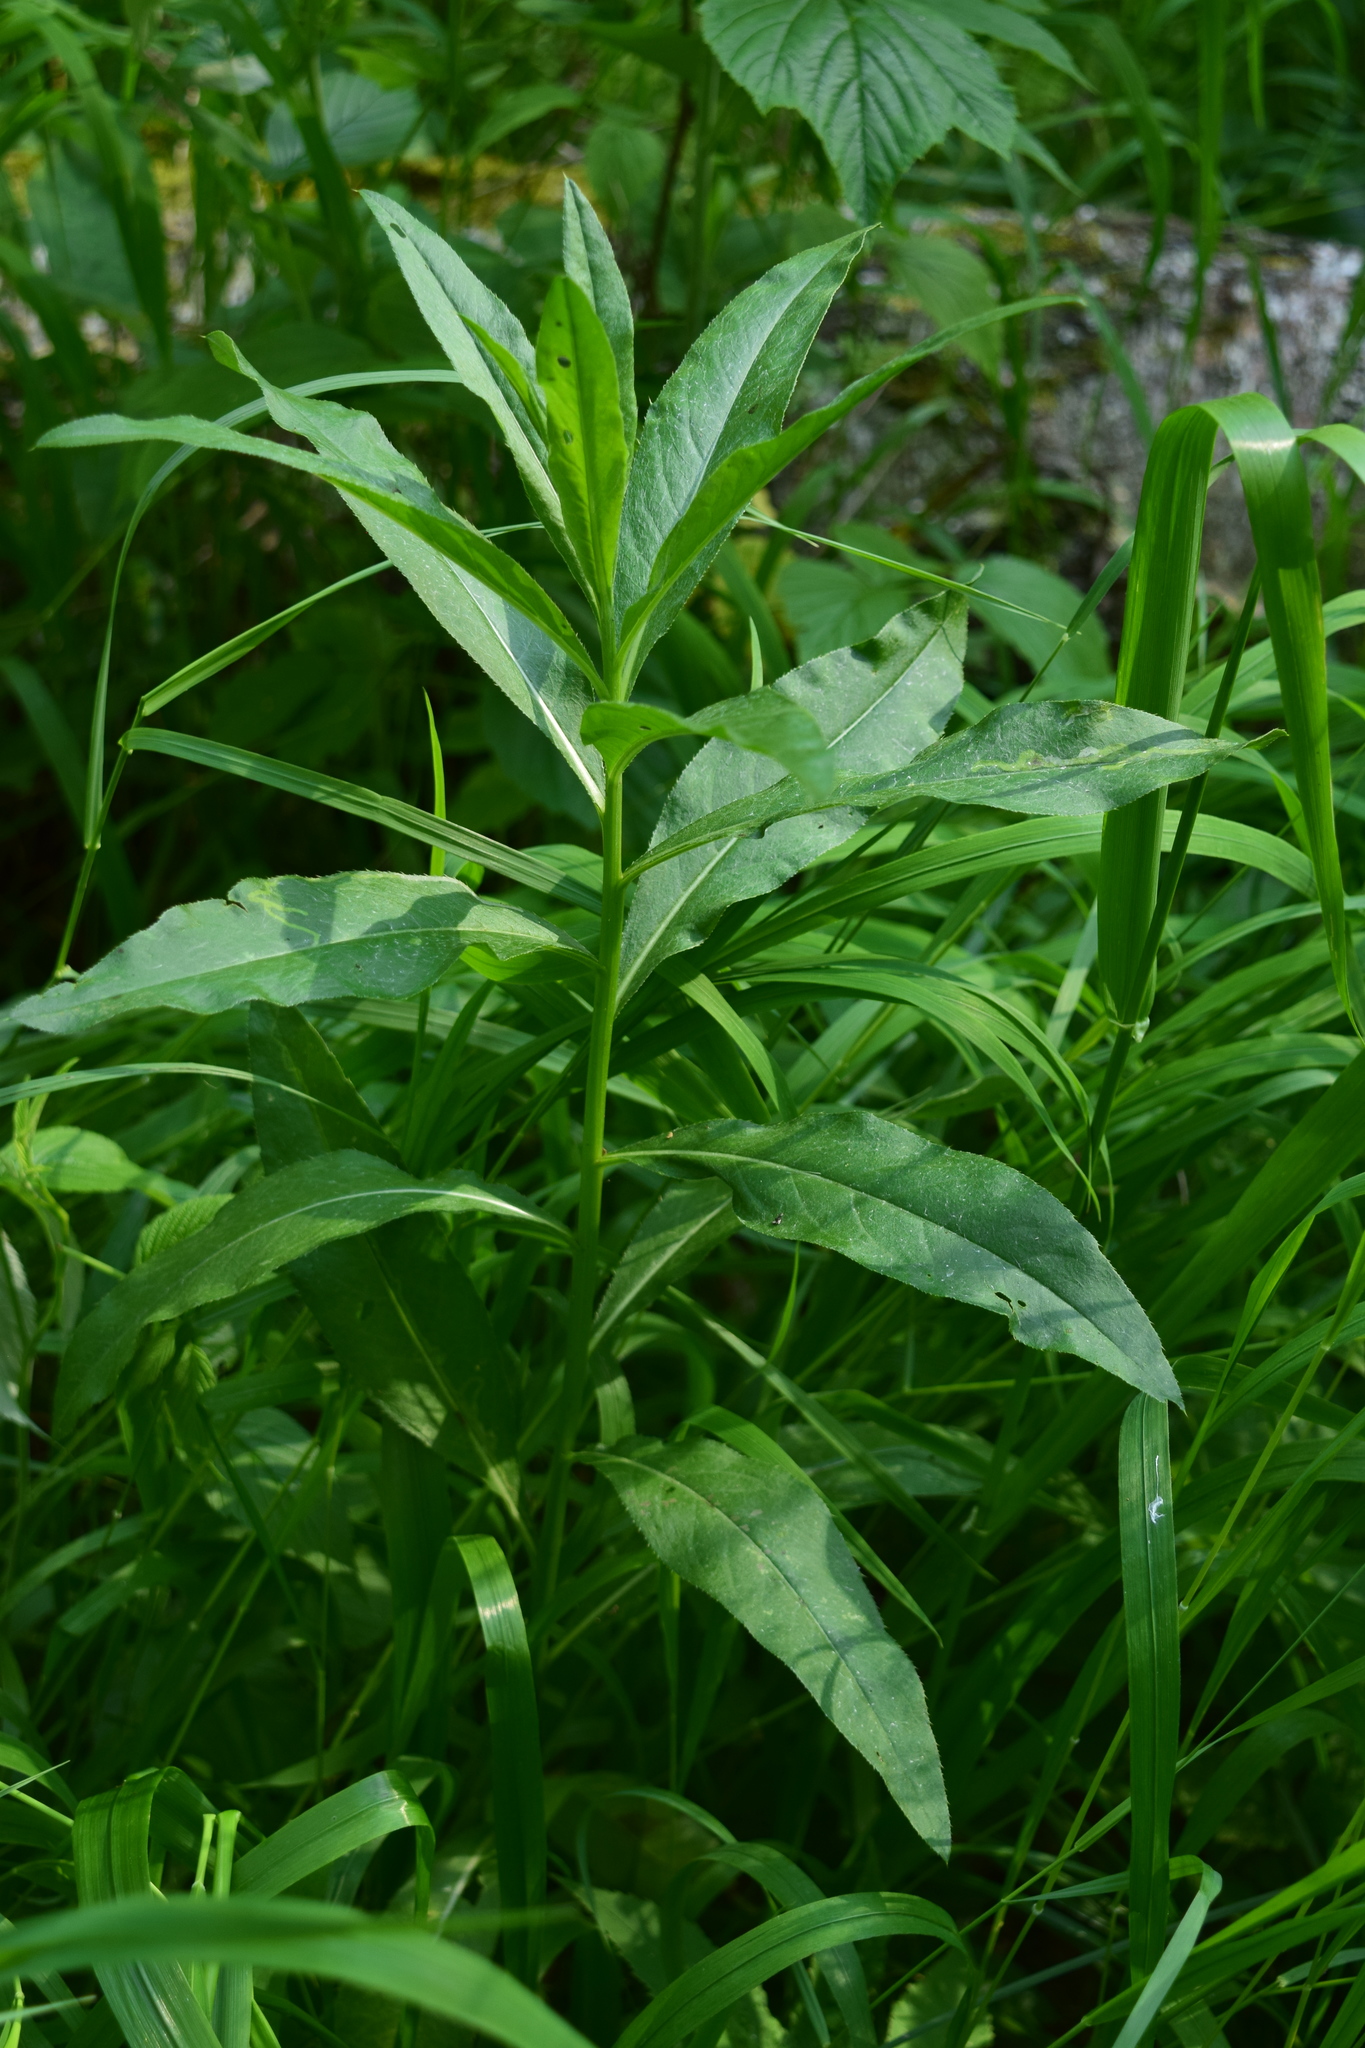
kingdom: Plantae
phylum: Tracheophyta
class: Magnoliopsida
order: Asterales
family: Asteraceae
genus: Cirsium
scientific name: Cirsium arvense
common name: Creeping thistle
